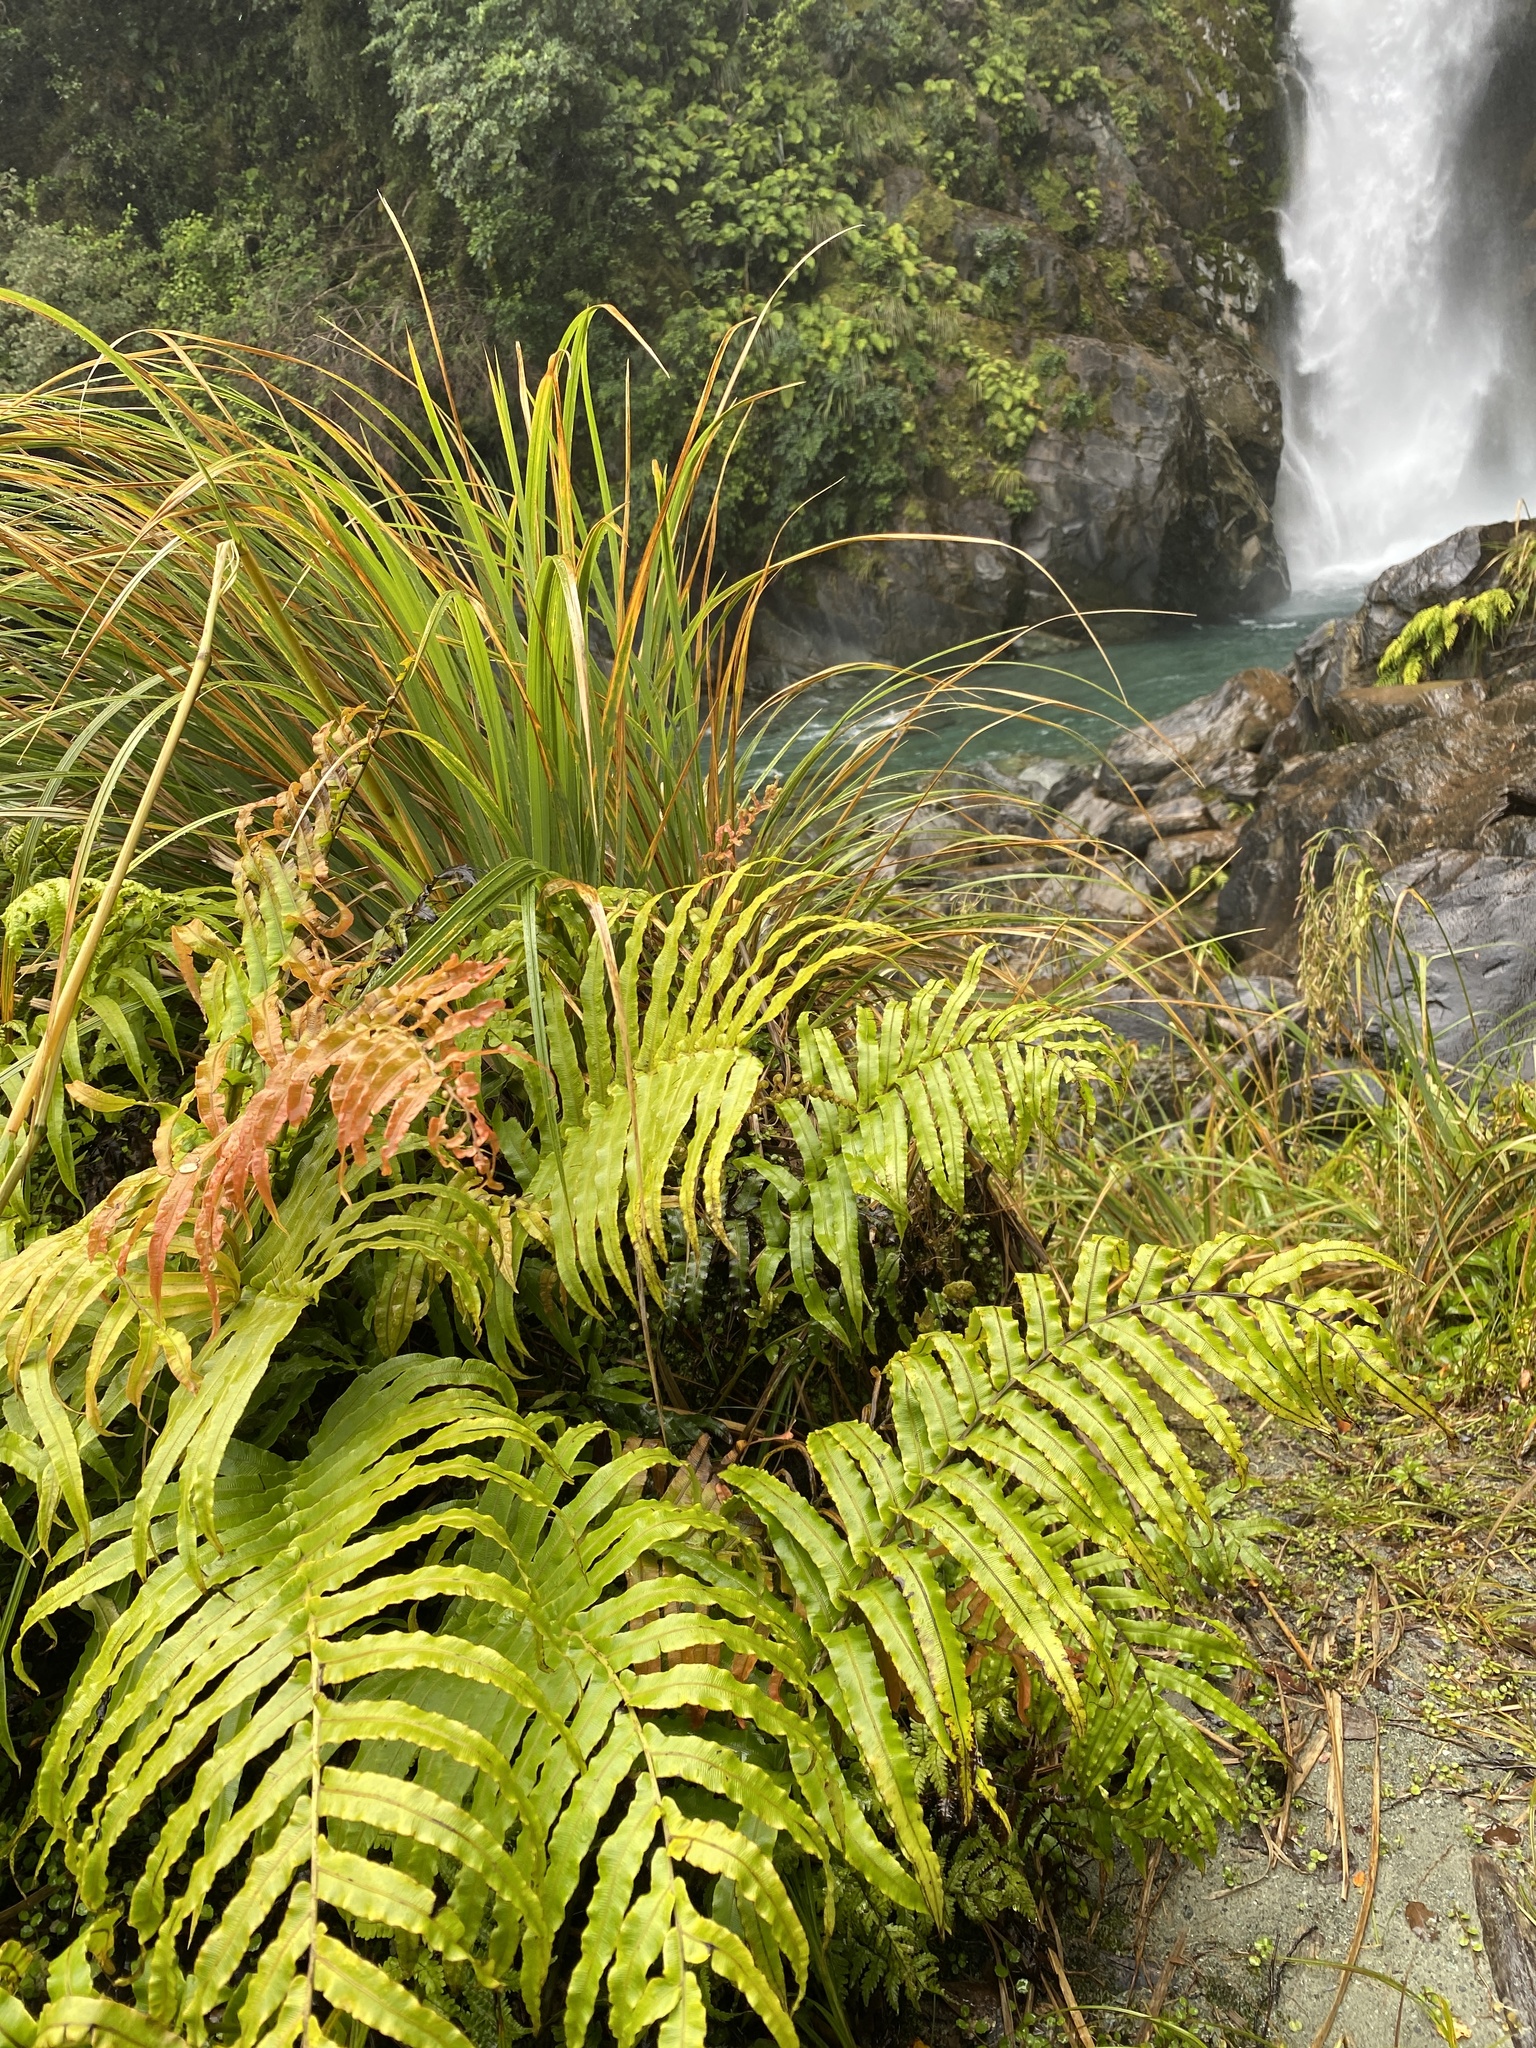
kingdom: Plantae
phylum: Tracheophyta
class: Polypodiopsida
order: Polypodiales
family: Blechnaceae
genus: Parablechnum
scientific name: Parablechnum novae-zelandiae
